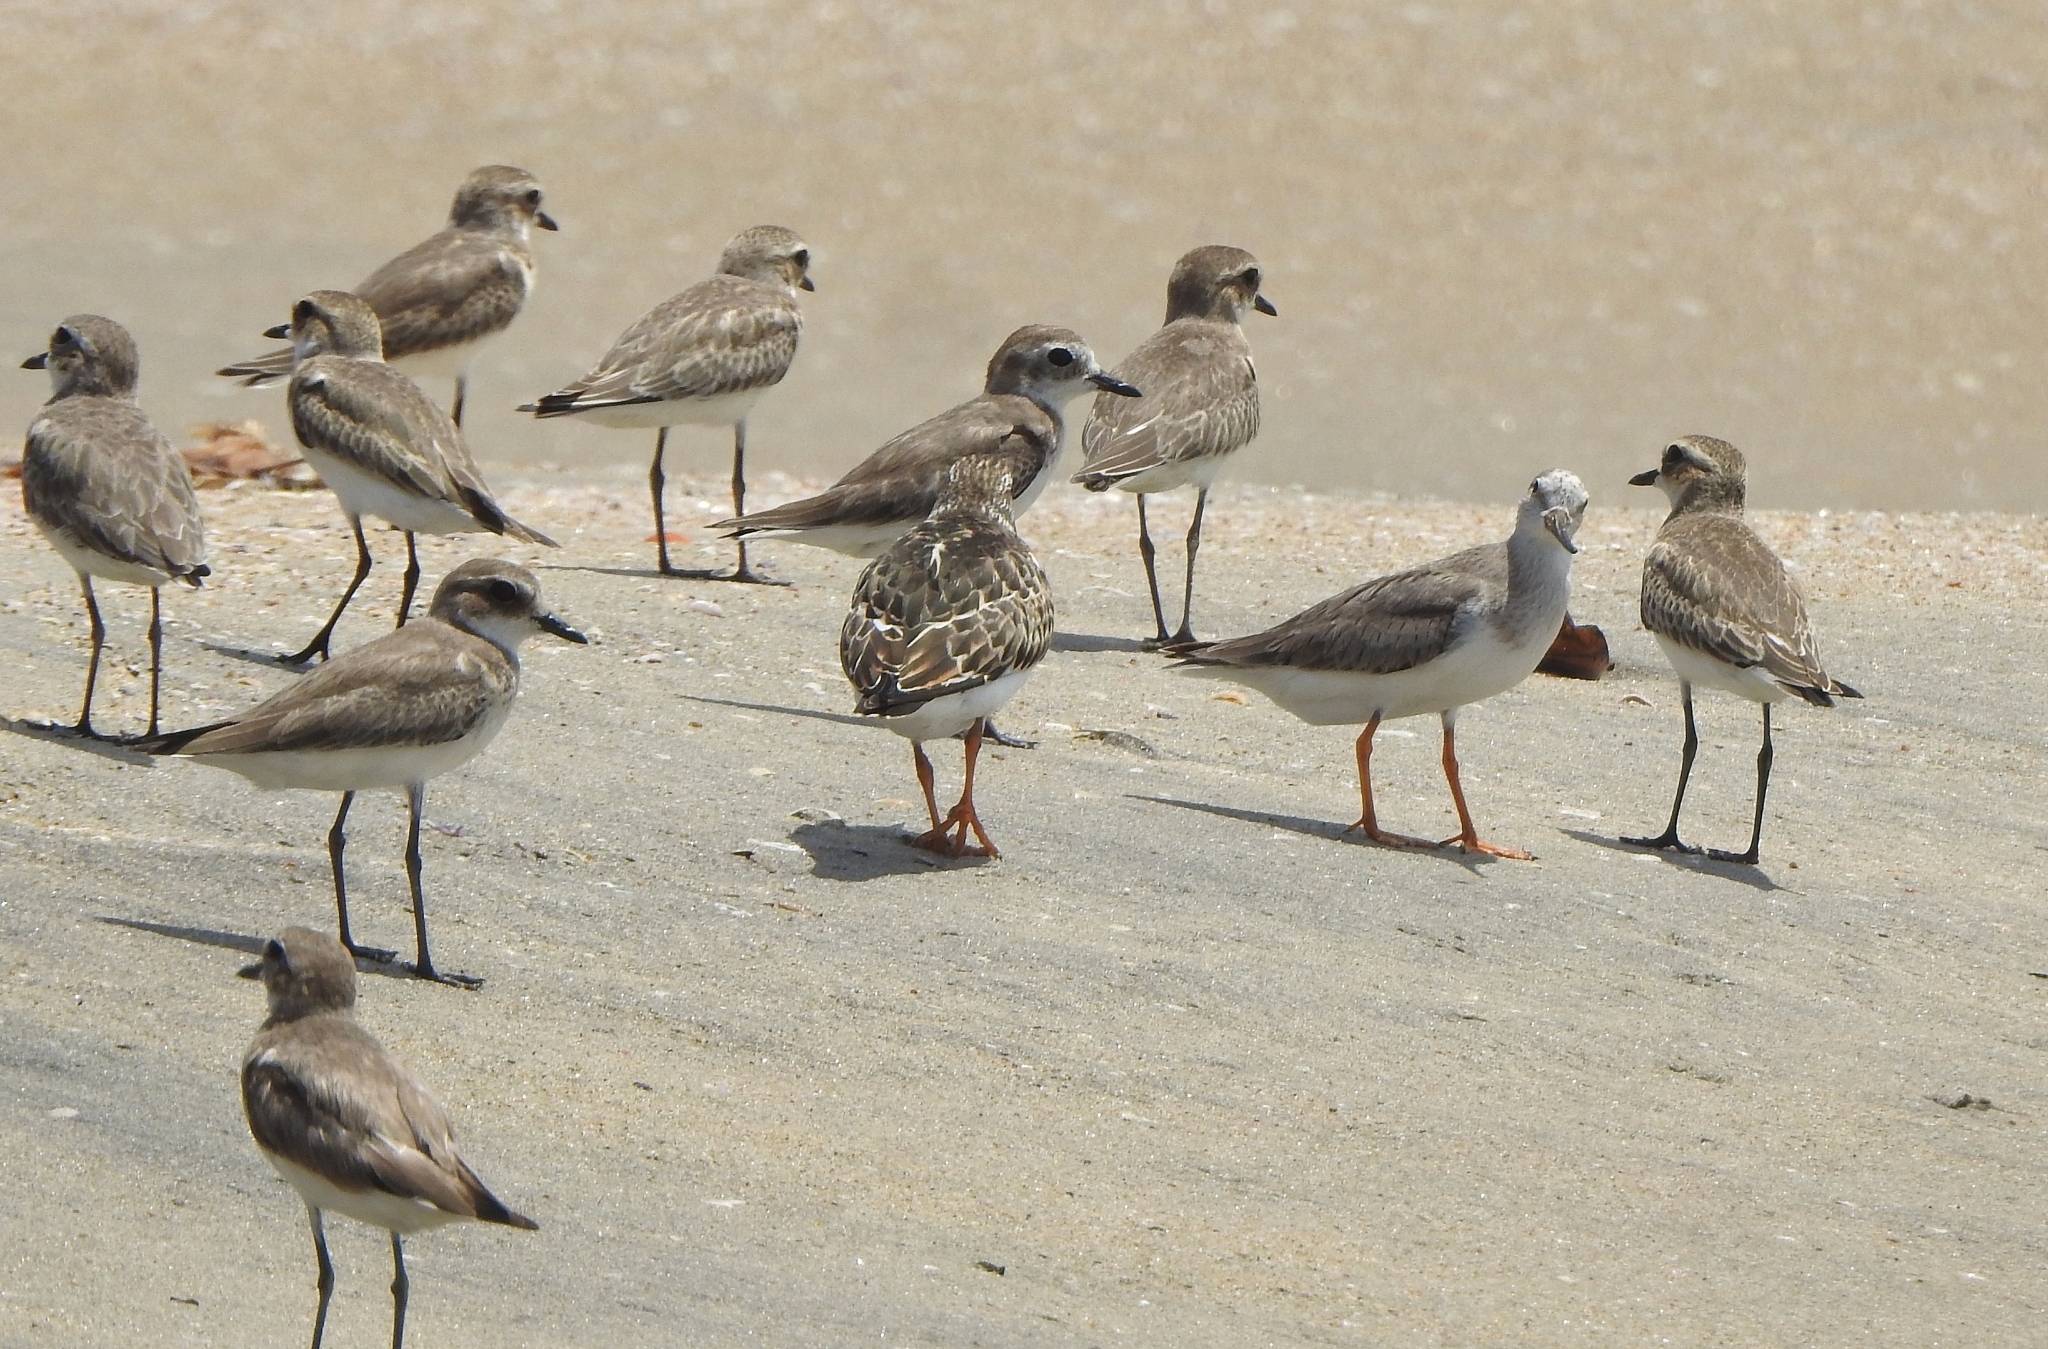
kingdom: Animalia
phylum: Chordata
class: Aves
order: Charadriiformes
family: Charadriidae
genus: Anarhynchus
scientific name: Anarhynchus
